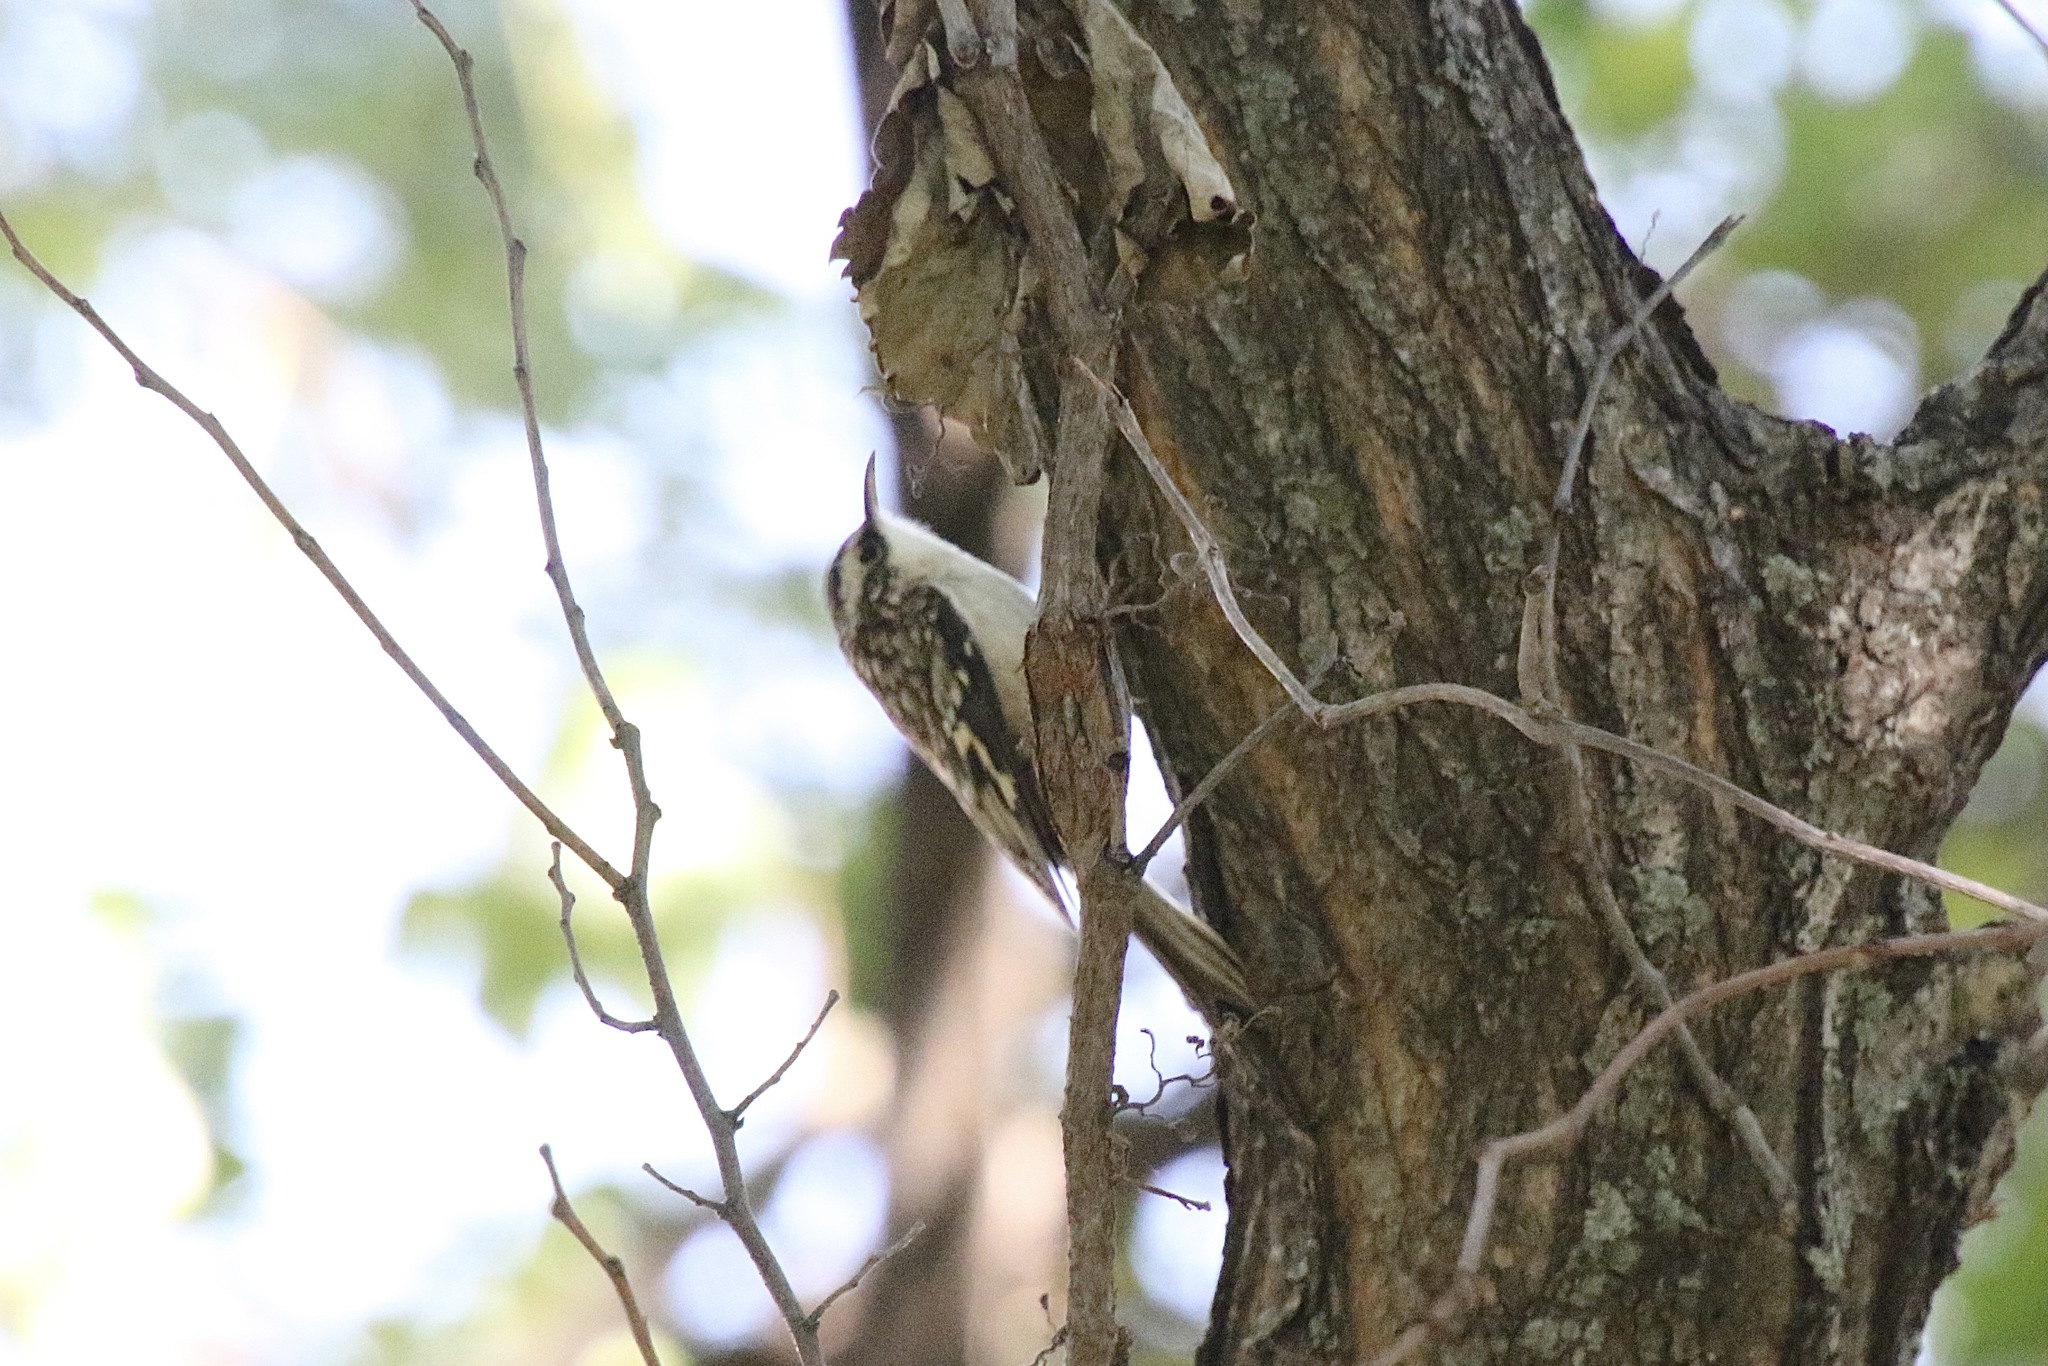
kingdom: Animalia
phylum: Chordata
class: Aves
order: Passeriformes
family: Certhiidae
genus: Certhia
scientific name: Certhia americana
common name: Brown creeper
